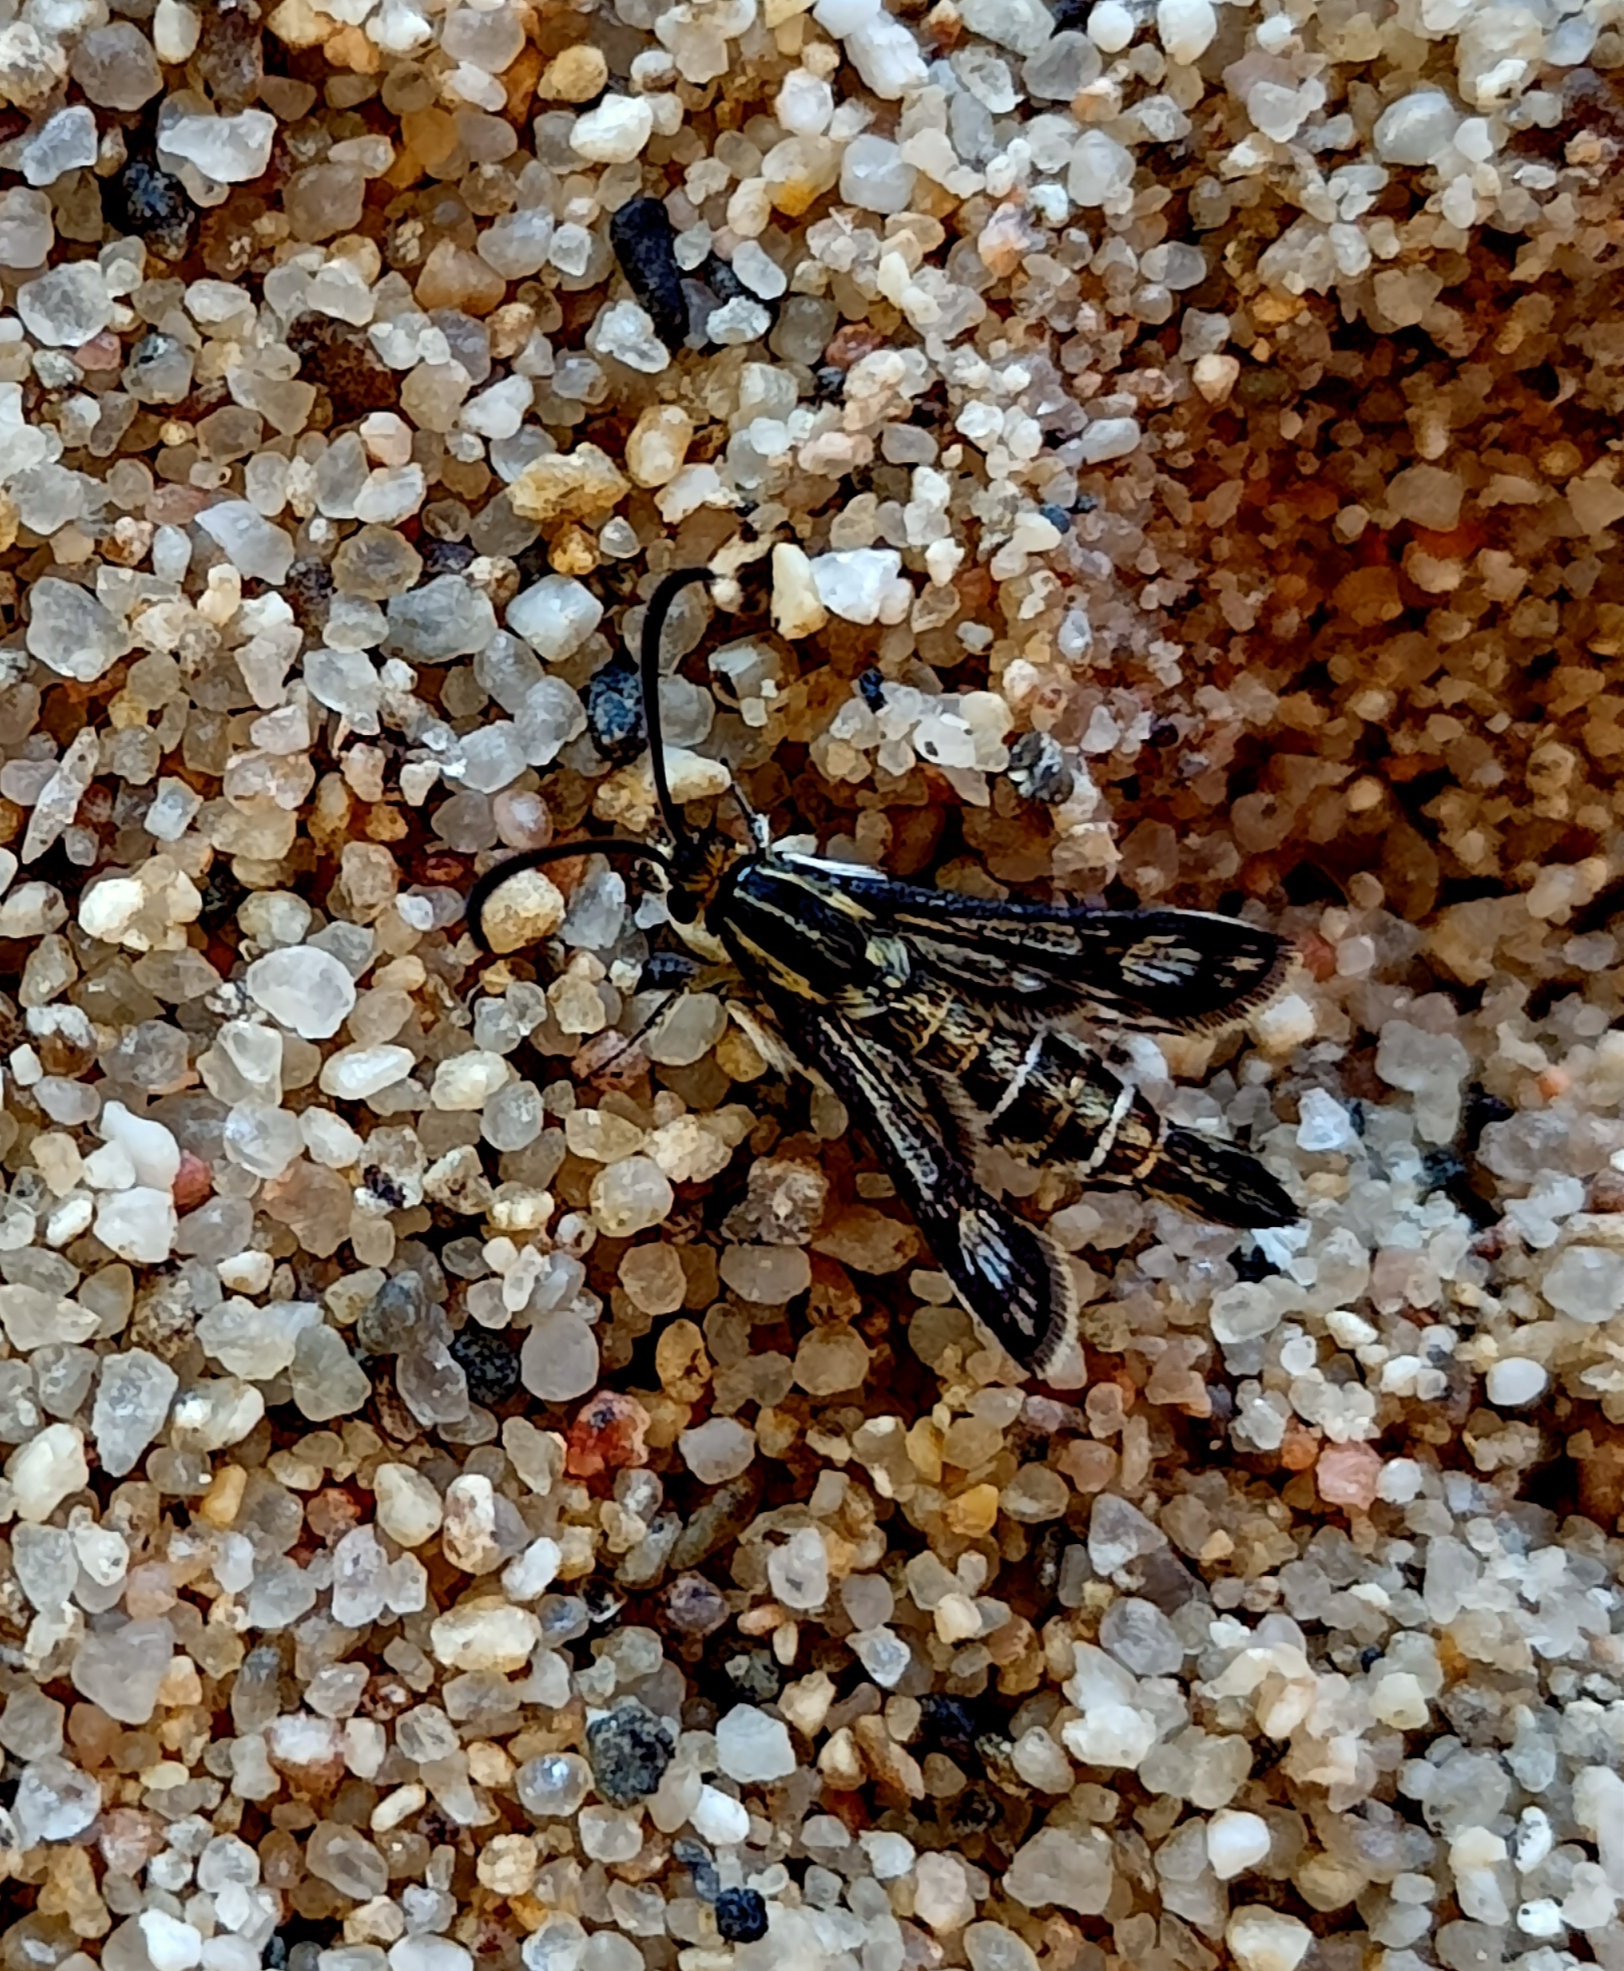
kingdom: Animalia
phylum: Arthropoda
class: Insecta
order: Lepidoptera
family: Sesiidae
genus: Pyropteron
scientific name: Pyropteron muscaeformis
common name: Thrift clearwing
